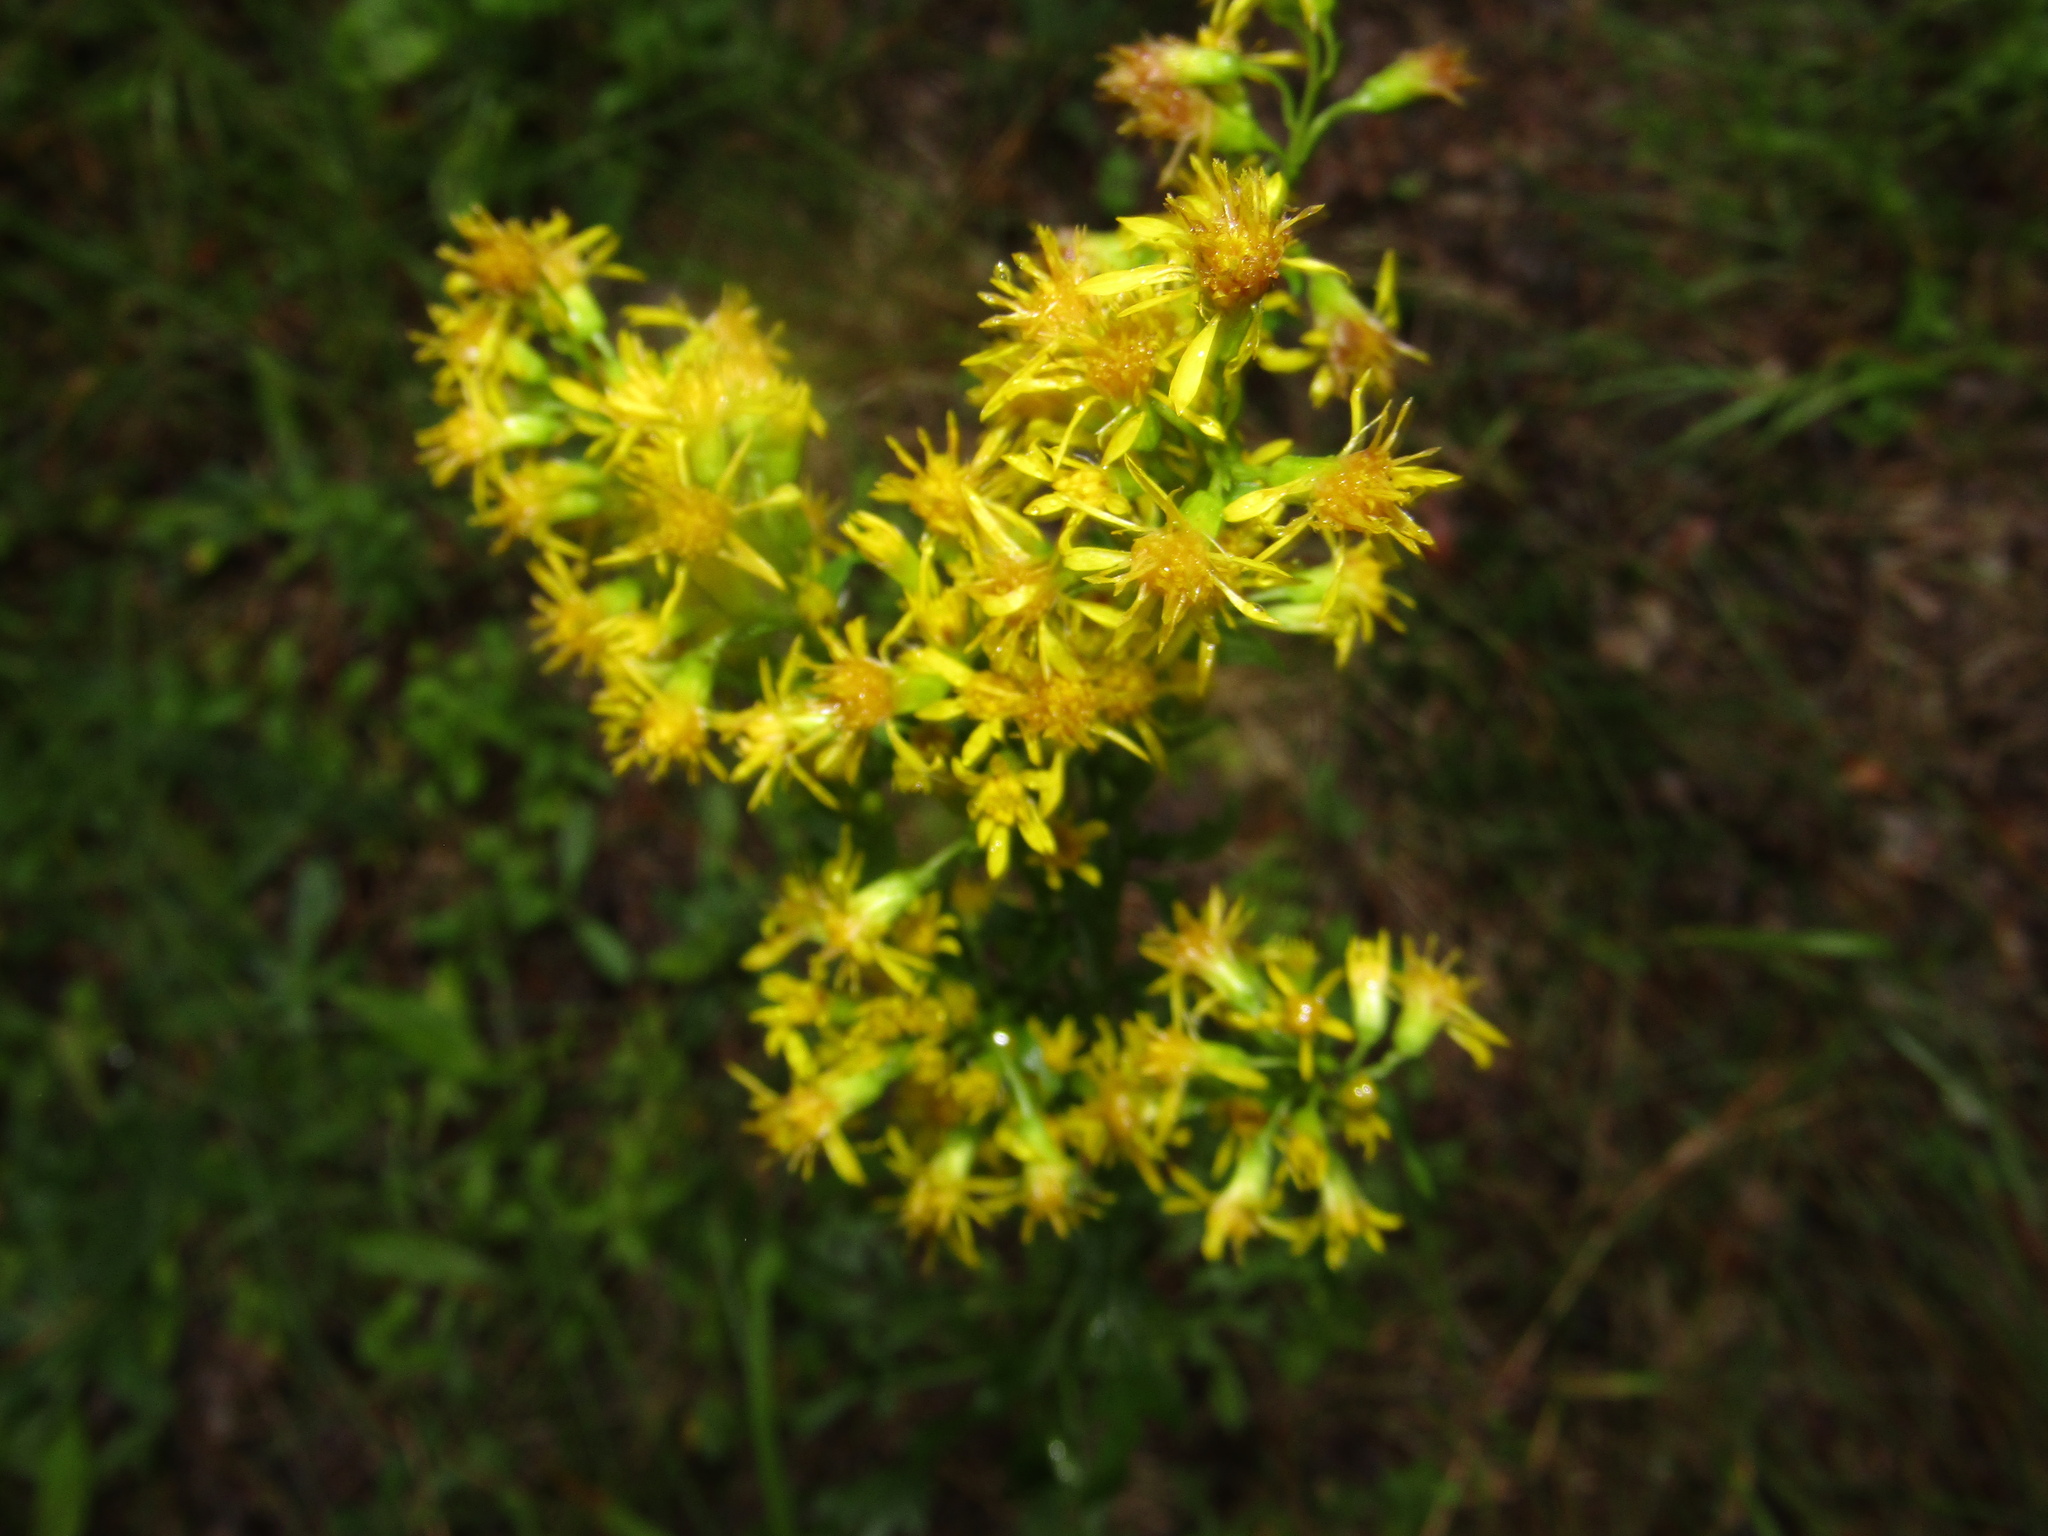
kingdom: Plantae
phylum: Tracheophyta
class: Magnoliopsida
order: Asterales
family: Asteraceae
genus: Solidago
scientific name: Solidago virgaurea
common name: Goldenrod
